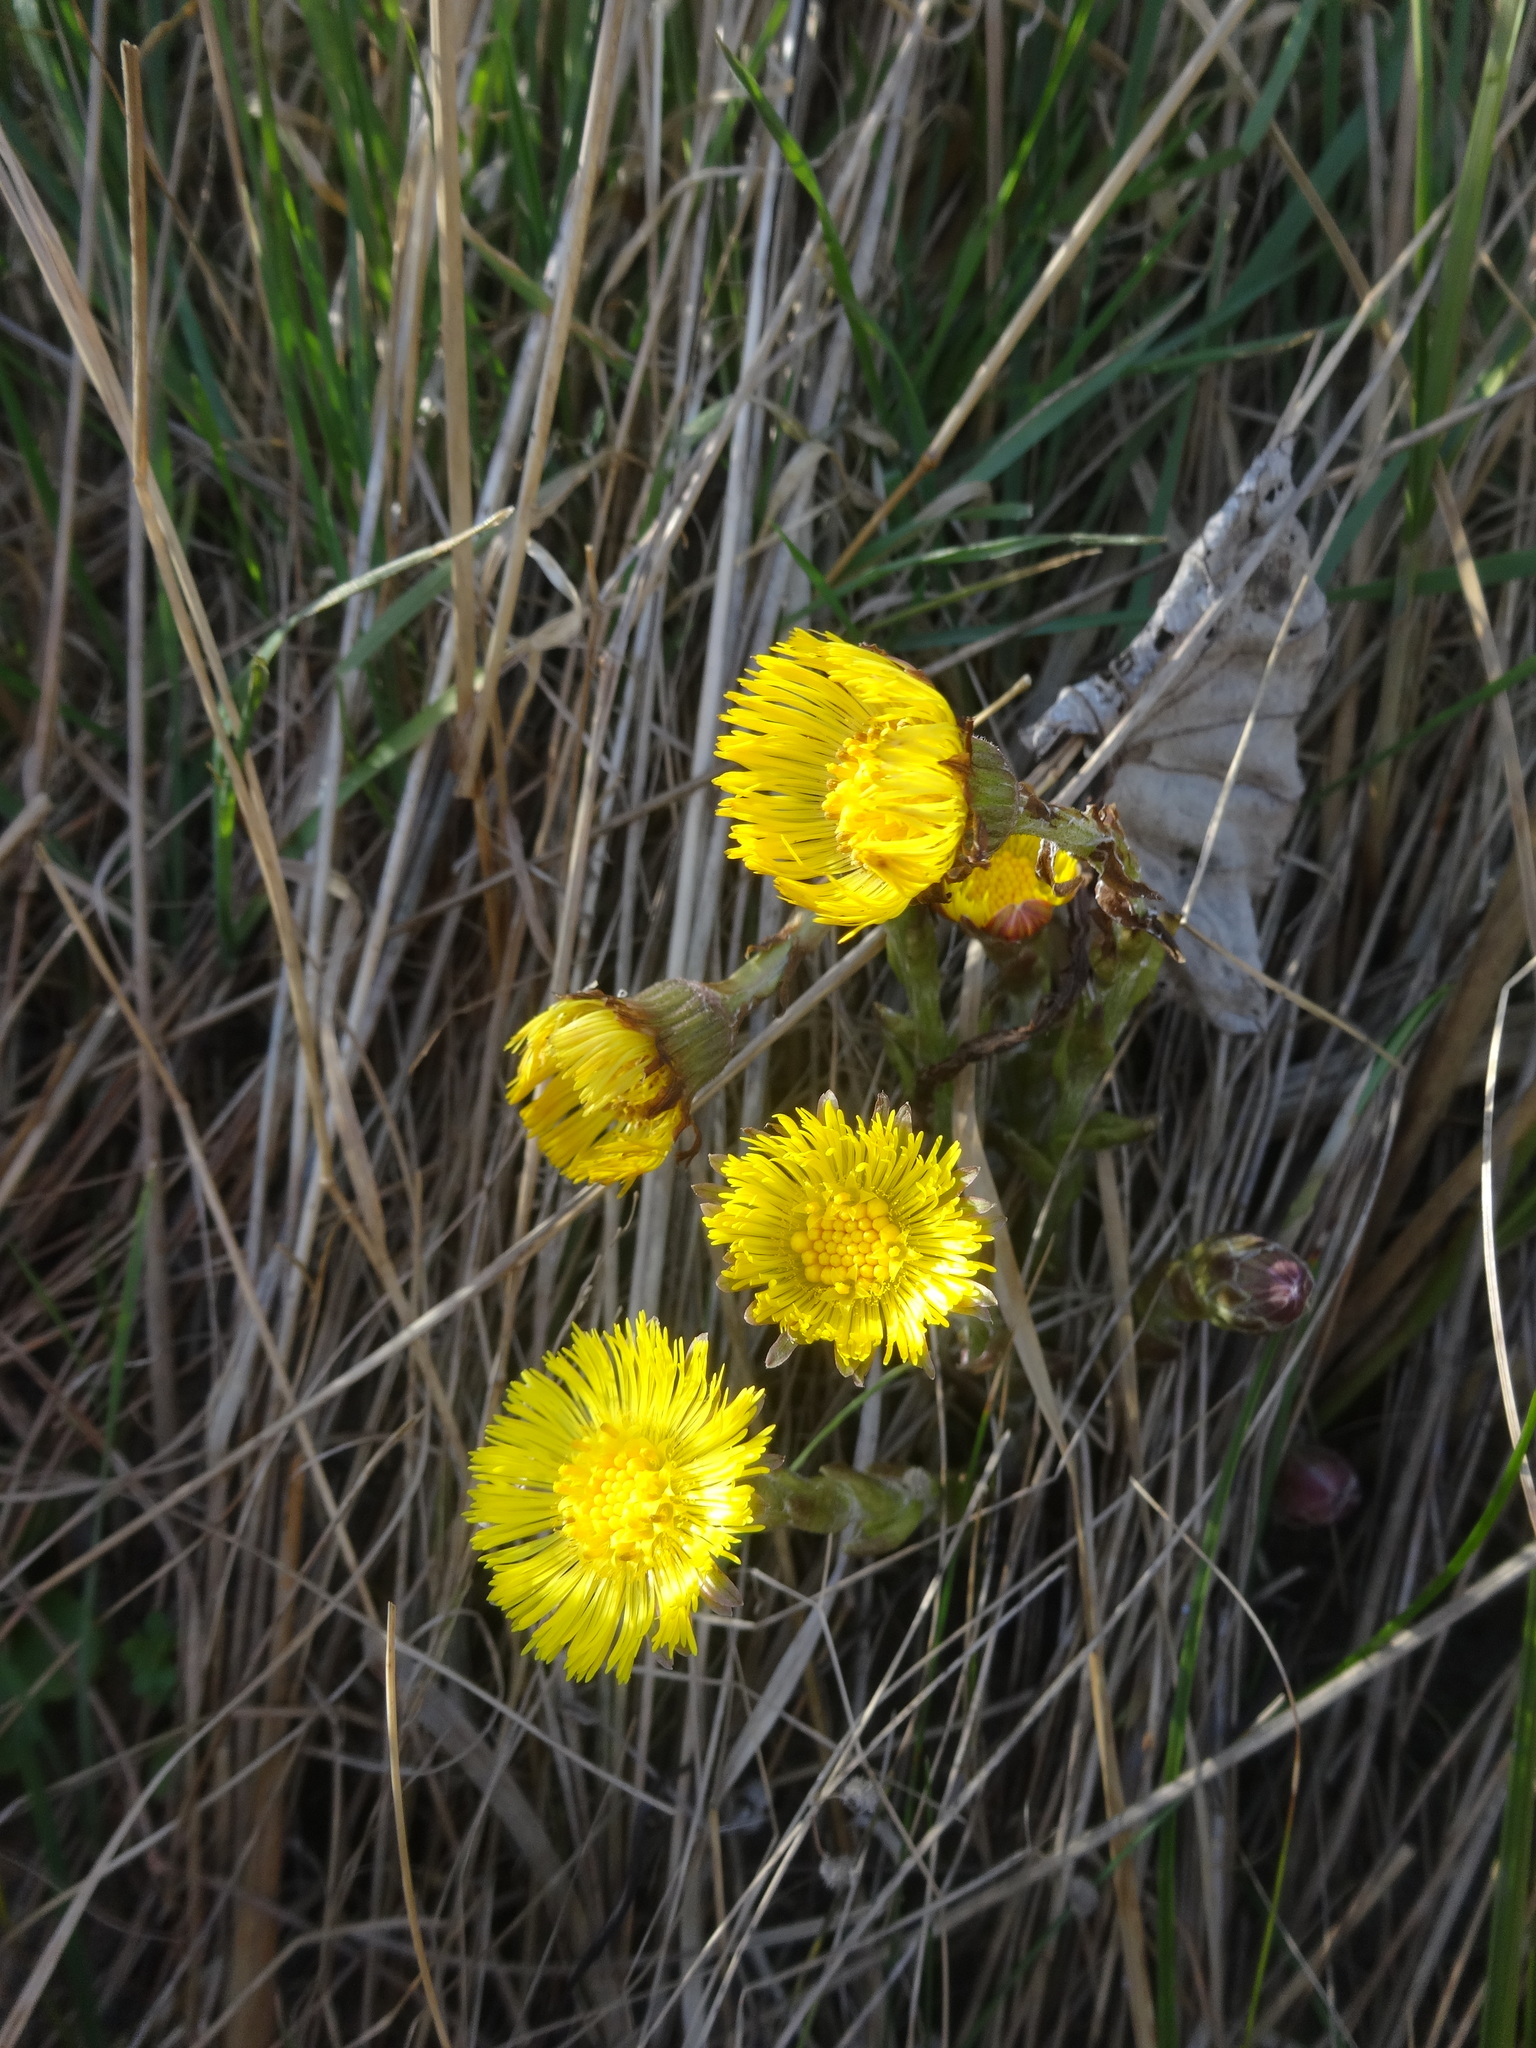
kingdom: Plantae
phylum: Tracheophyta
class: Magnoliopsida
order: Asterales
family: Asteraceae
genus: Tussilago
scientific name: Tussilago farfara
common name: Coltsfoot
